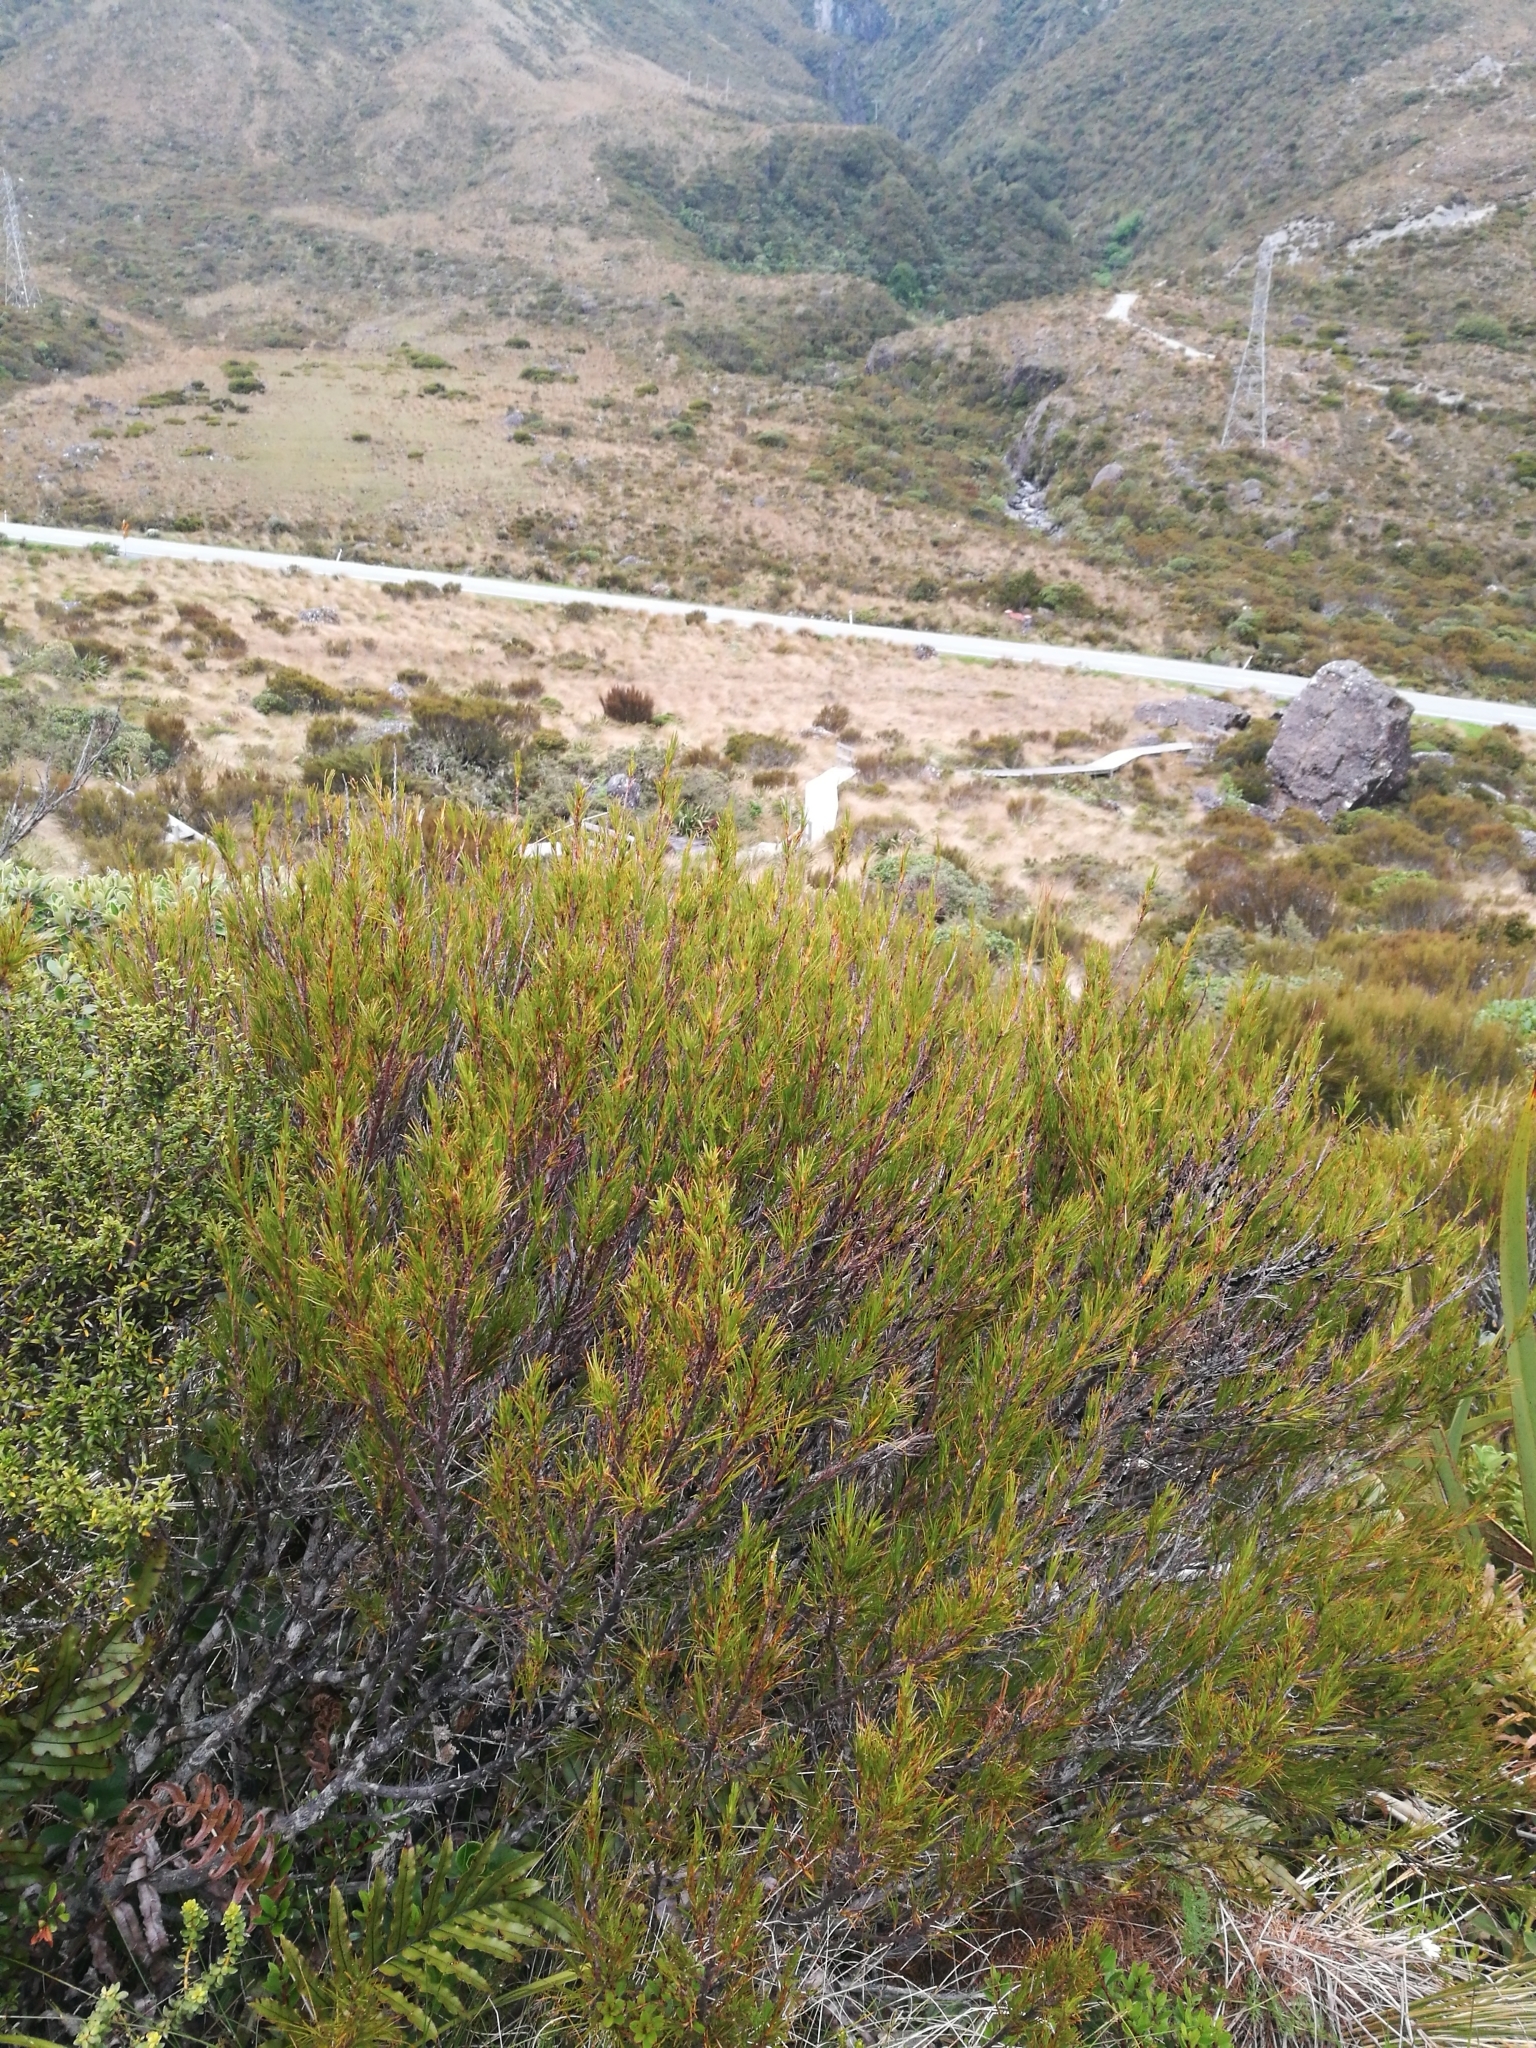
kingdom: Plantae
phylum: Tracheophyta
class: Magnoliopsida
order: Ericales
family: Ericaceae
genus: Dracophyllum
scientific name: Dracophyllum rosmarinifolium
